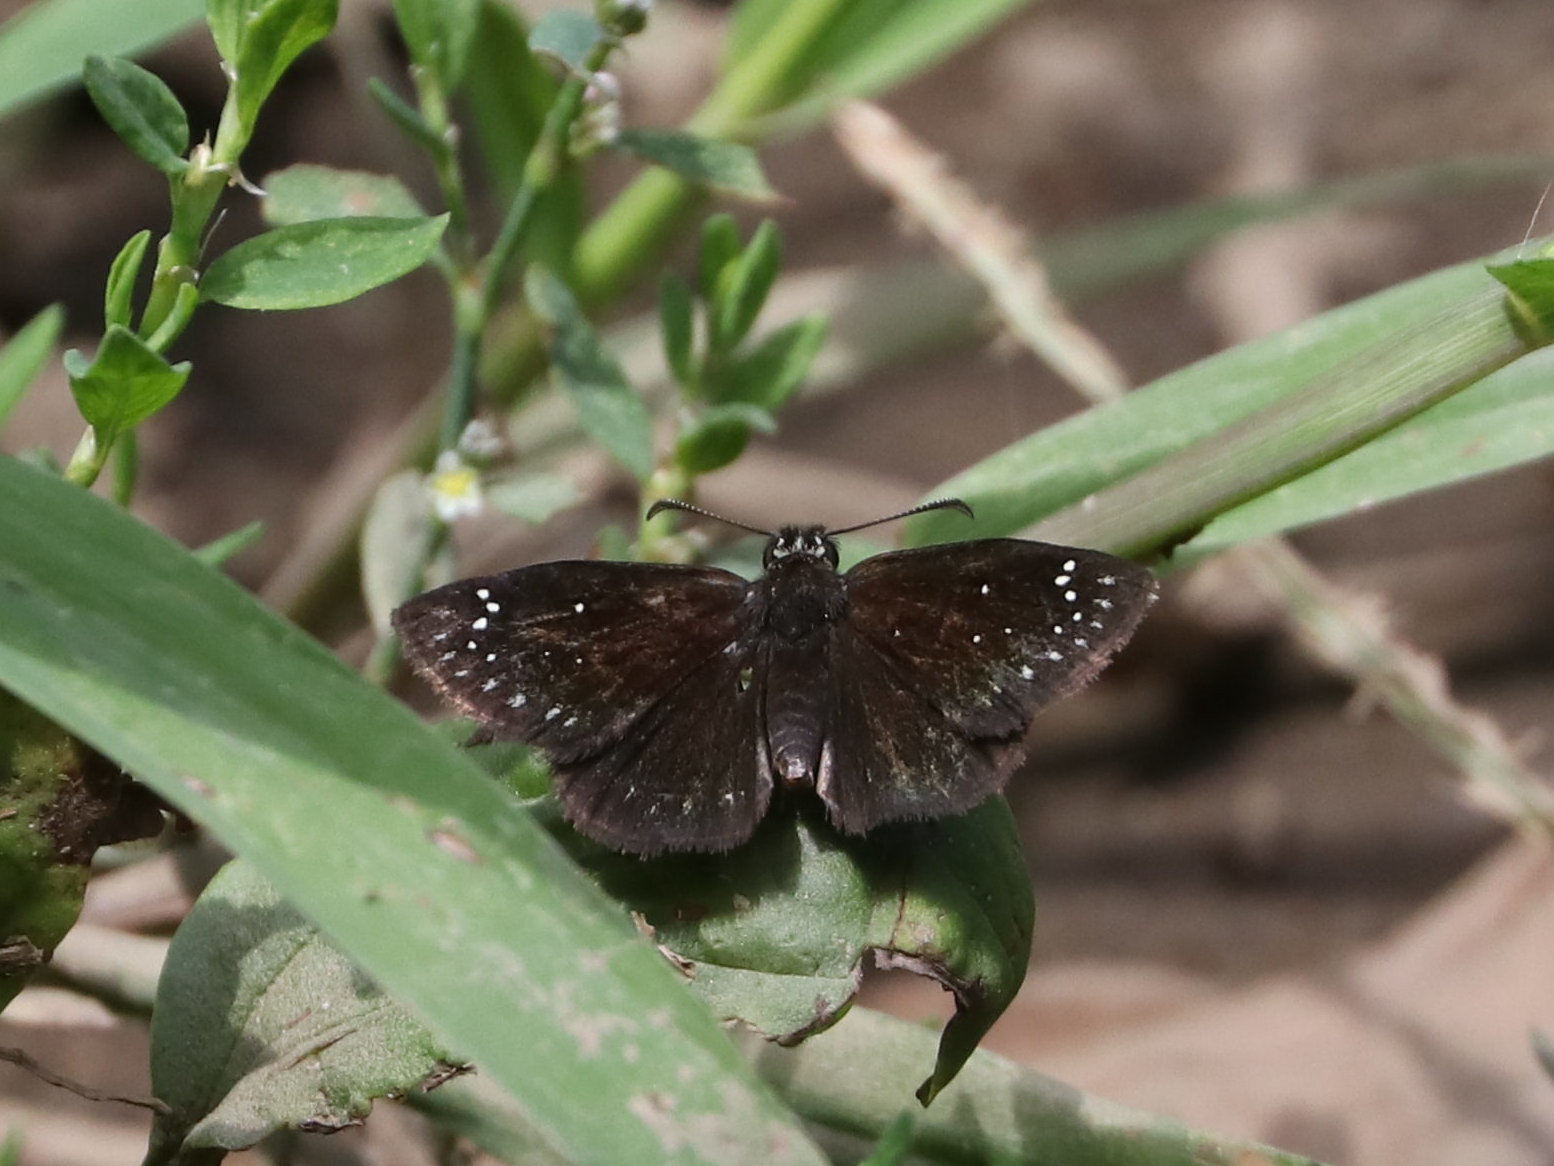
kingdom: Animalia
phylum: Arthropoda
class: Insecta
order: Lepidoptera
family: Hesperiidae
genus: Pholisora
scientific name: Pholisora catullus
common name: Common sootywing
